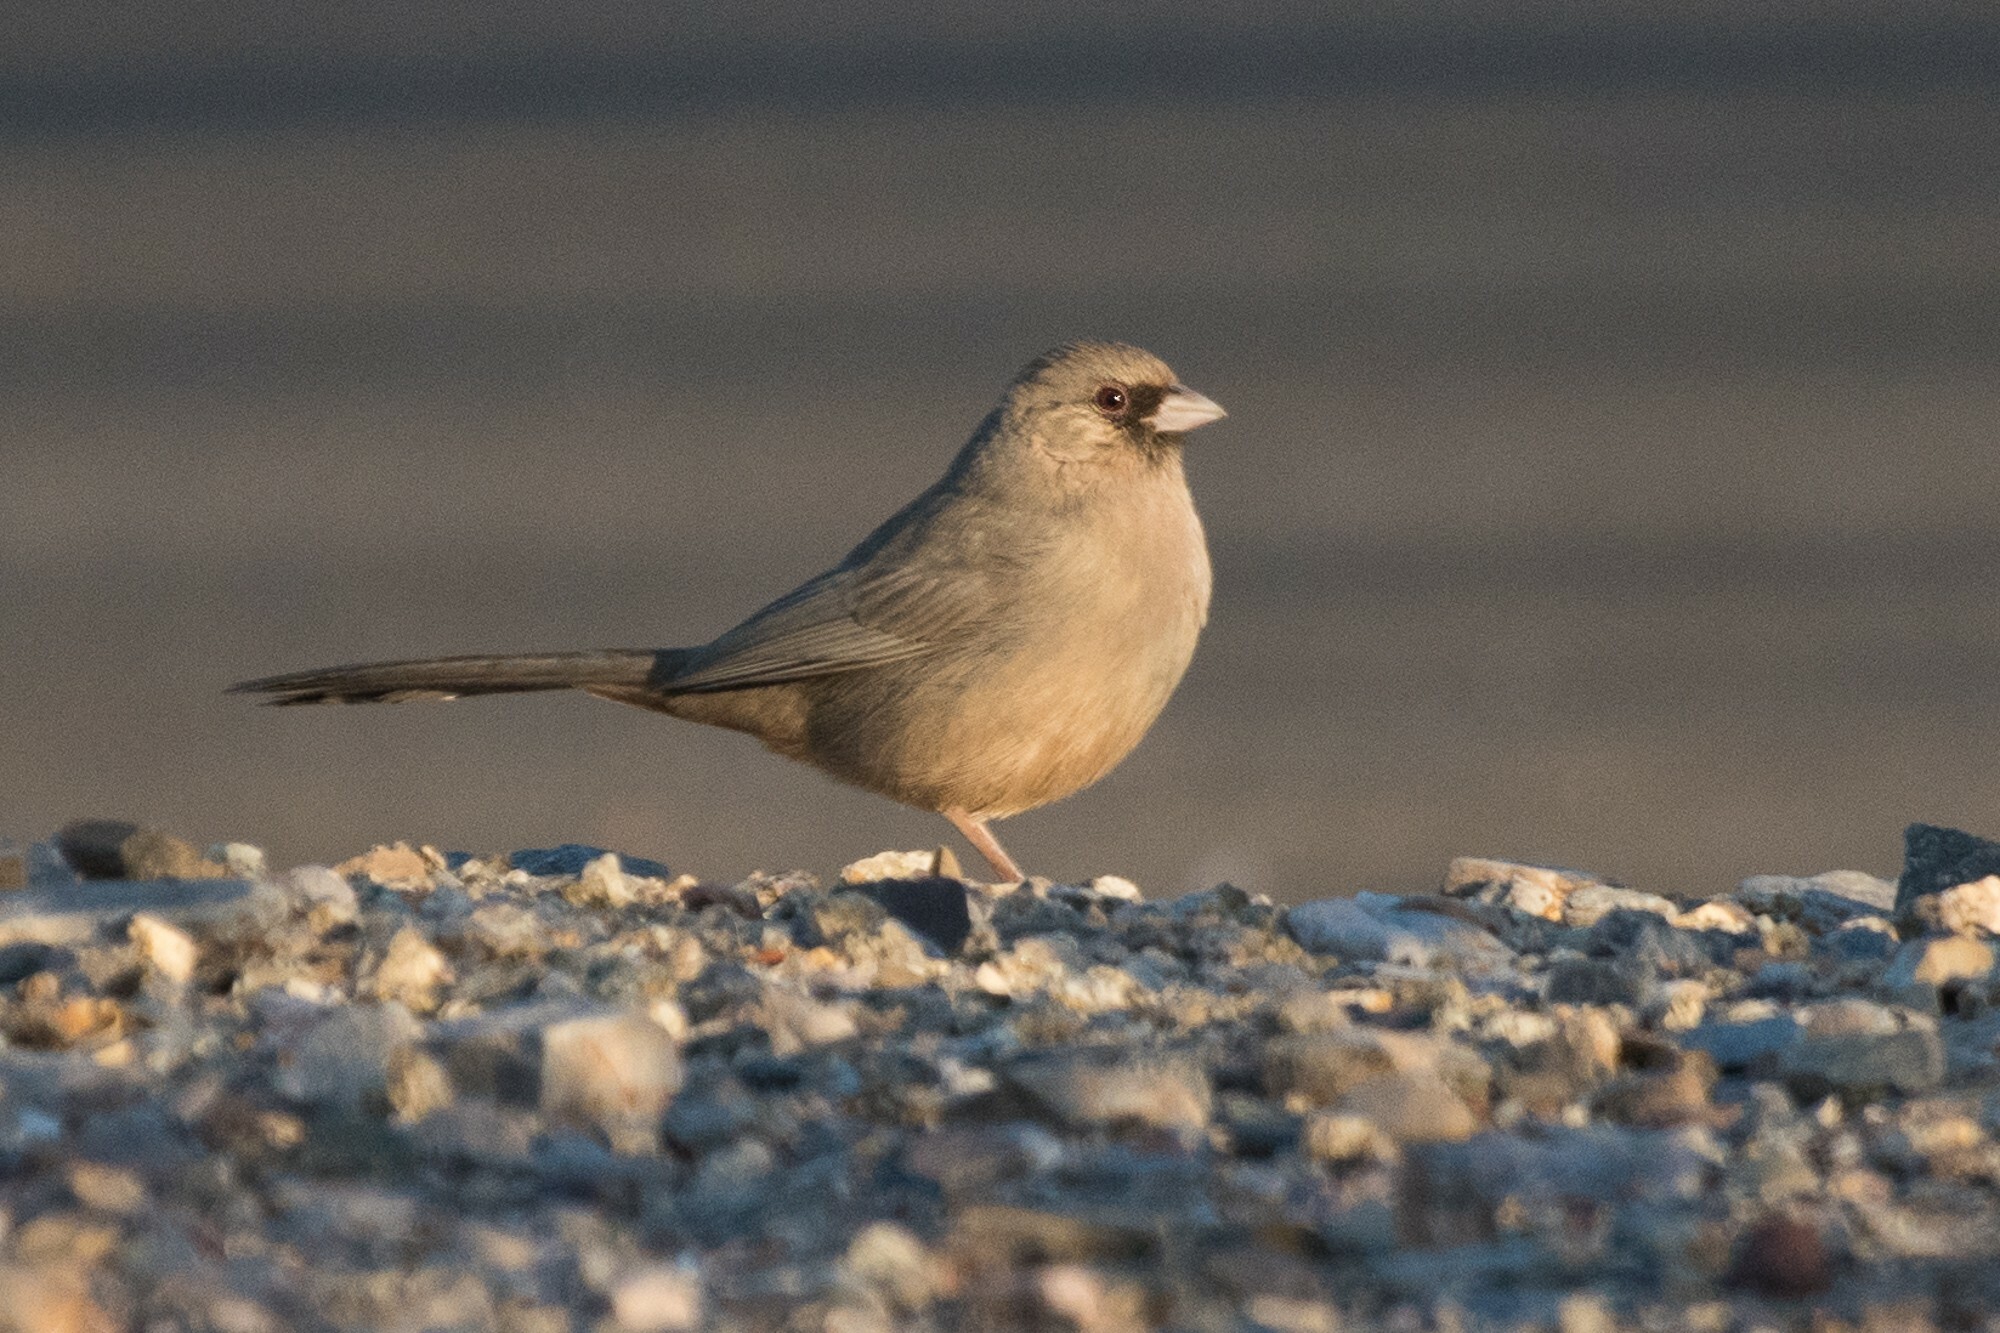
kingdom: Animalia
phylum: Chordata
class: Aves
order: Passeriformes
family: Passerellidae
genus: Melozone
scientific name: Melozone aberti
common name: Abert's towhee
